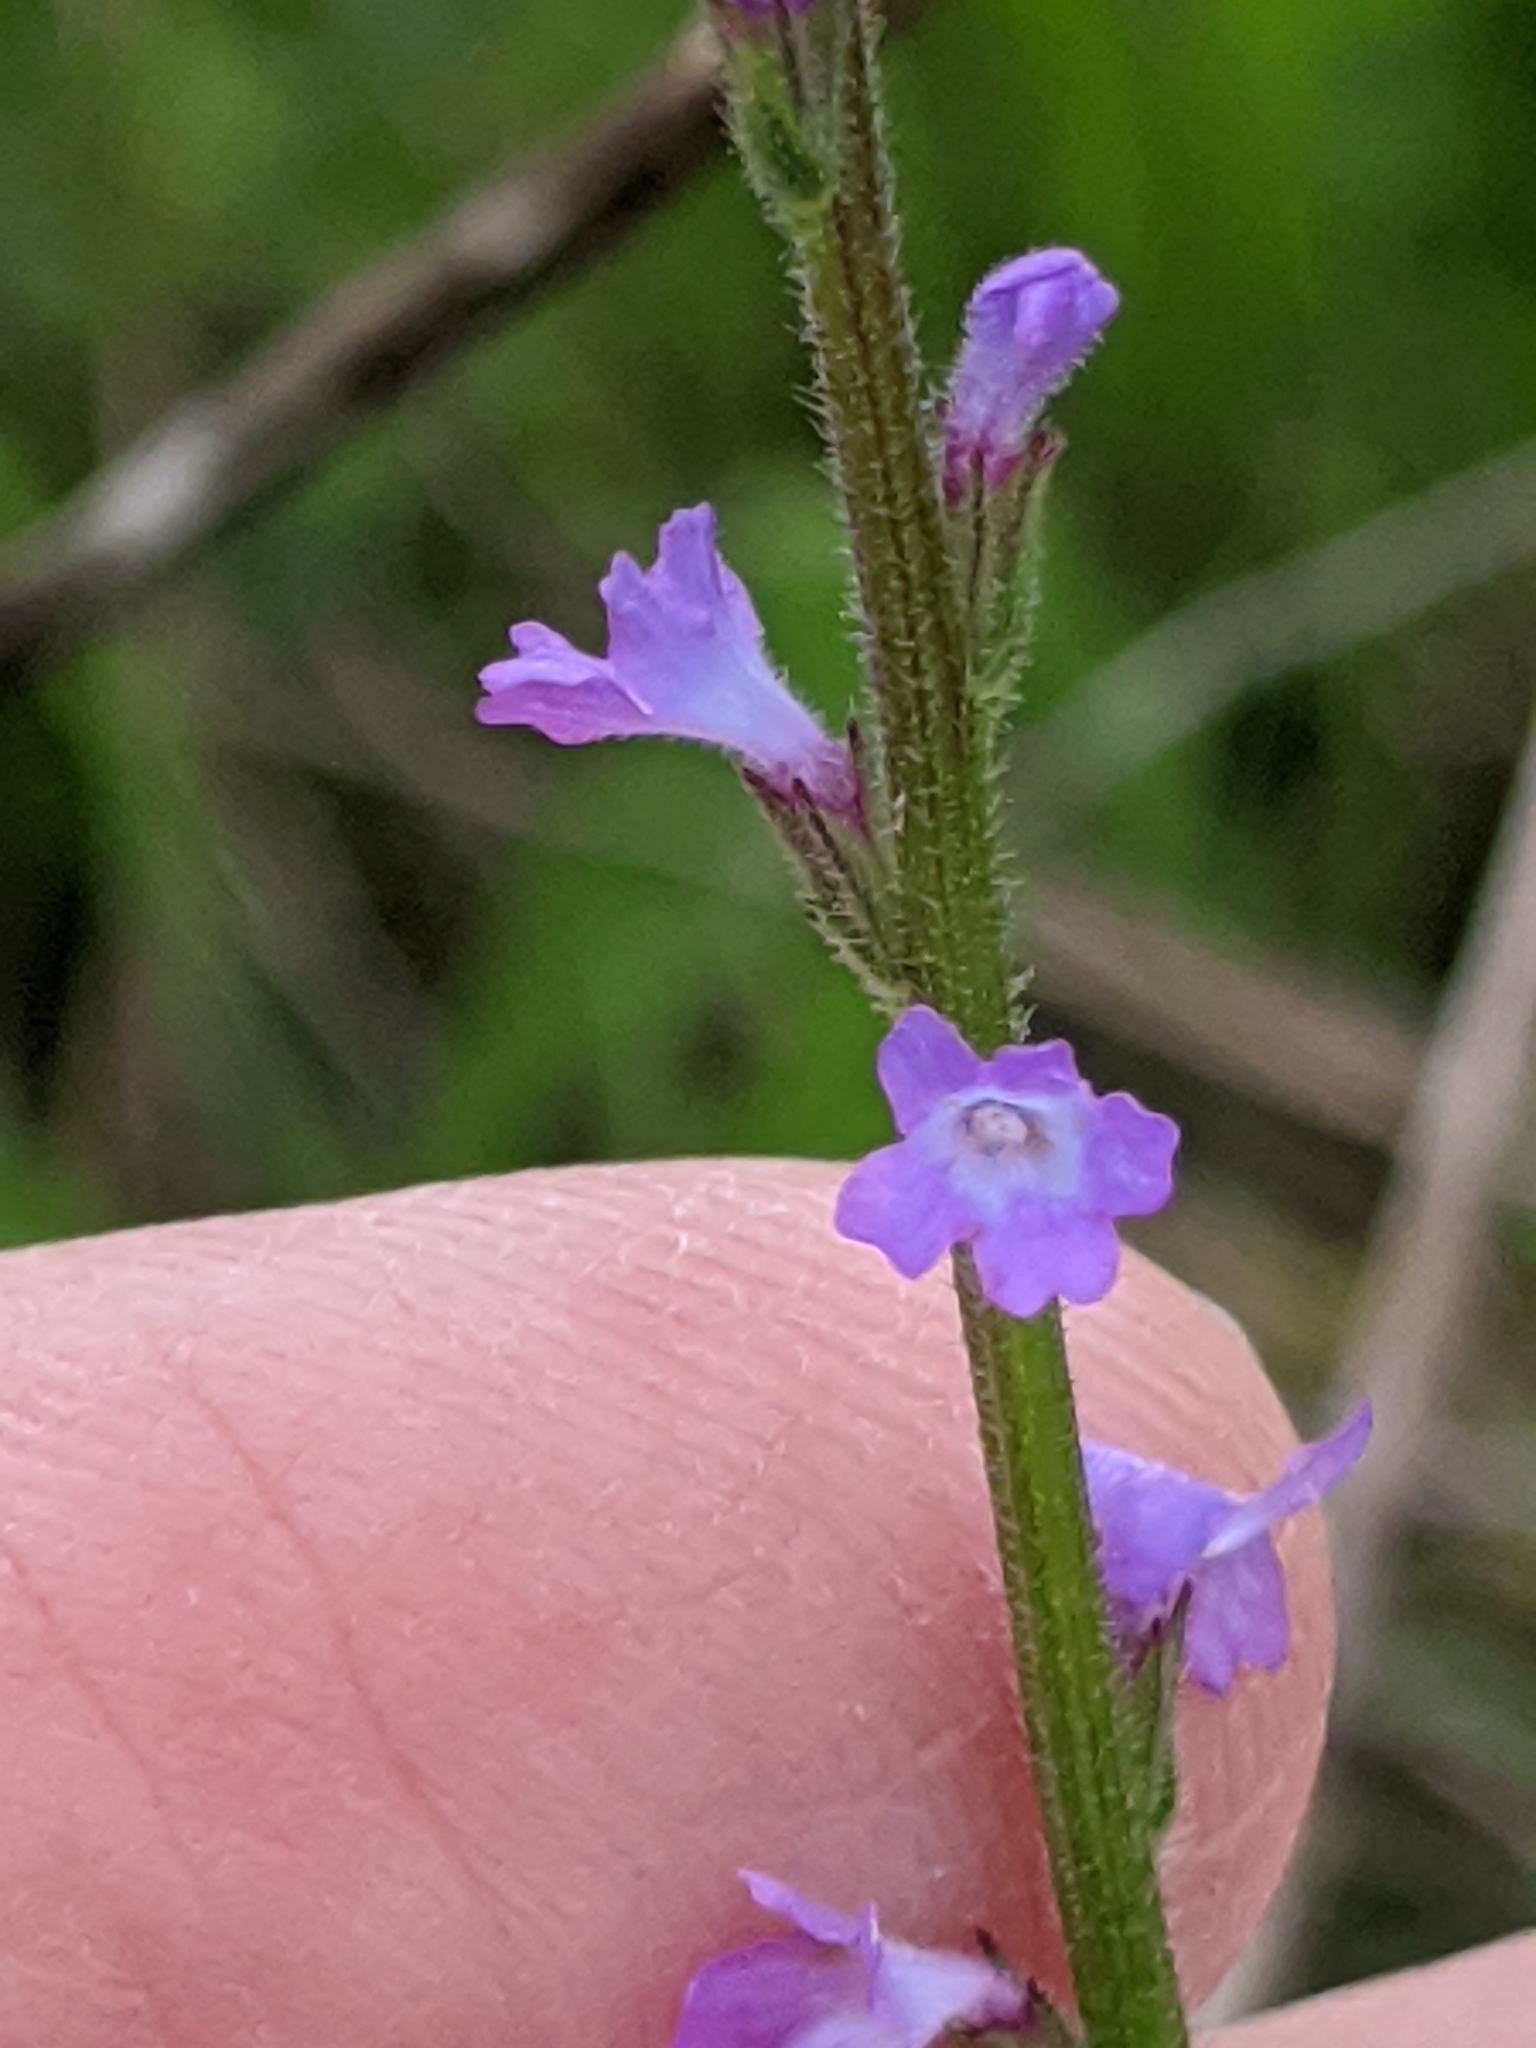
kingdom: Plantae
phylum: Tracheophyta
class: Magnoliopsida
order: Lamiales
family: Verbenaceae
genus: Verbena
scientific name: Verbena halei
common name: Texas vervain
